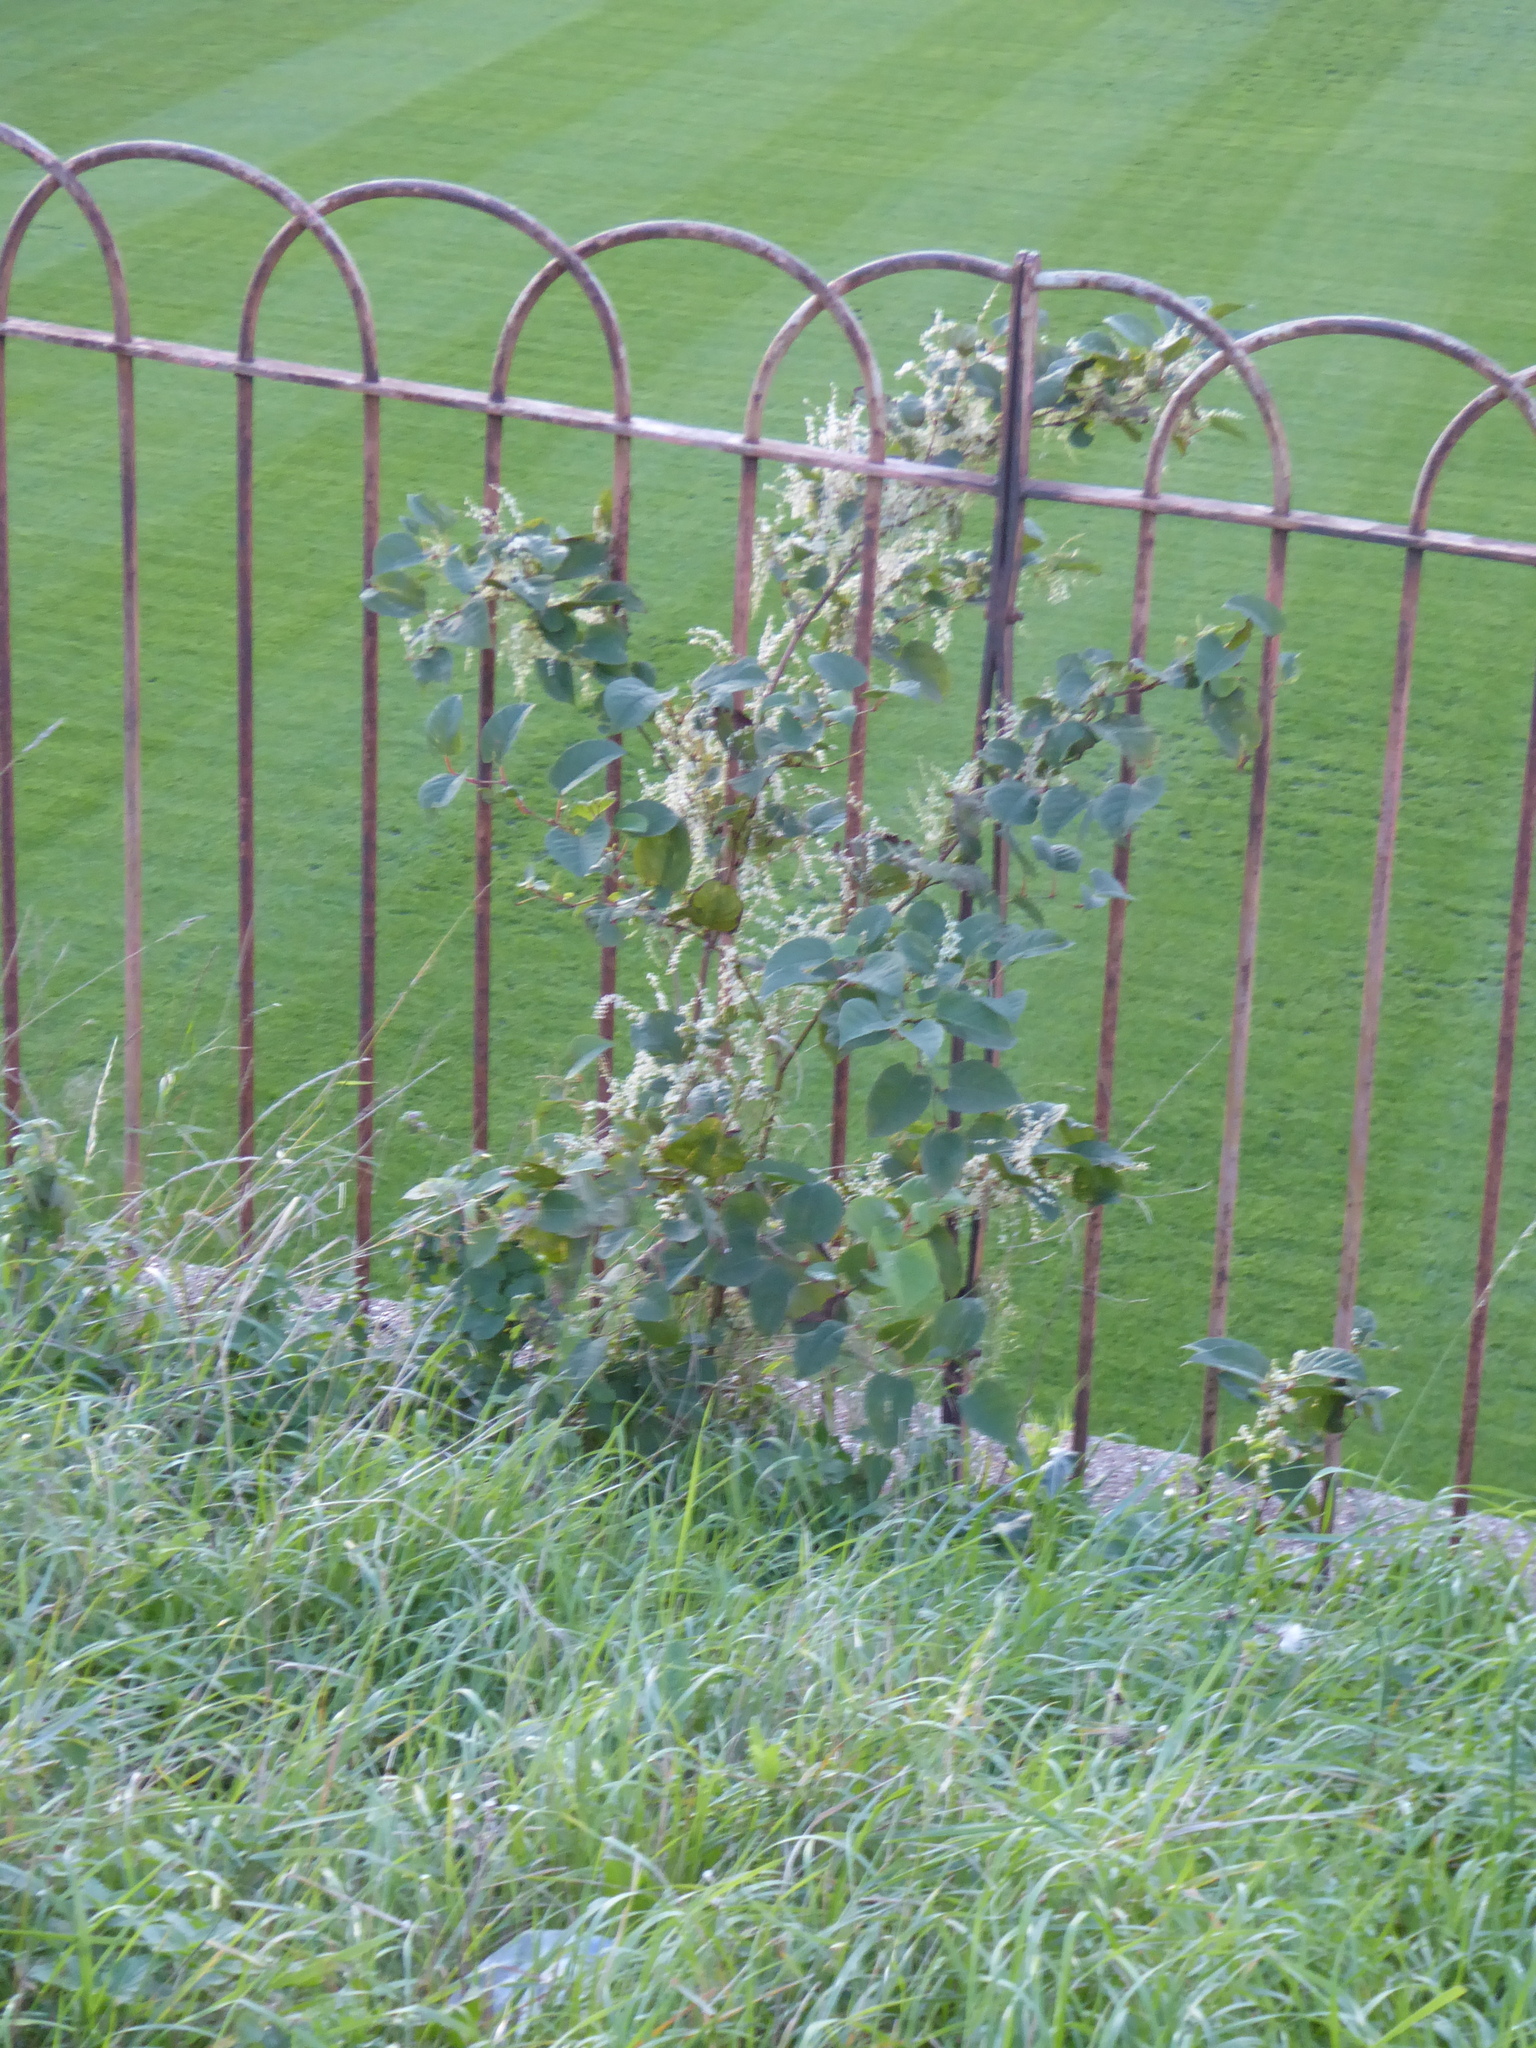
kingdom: Plantae
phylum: Tracheophyta
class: Magnoliopsida
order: Caryophyllales
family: Polygonaceae
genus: Reynoutria
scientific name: Reynoutria japonica
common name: Japanese knotweed
